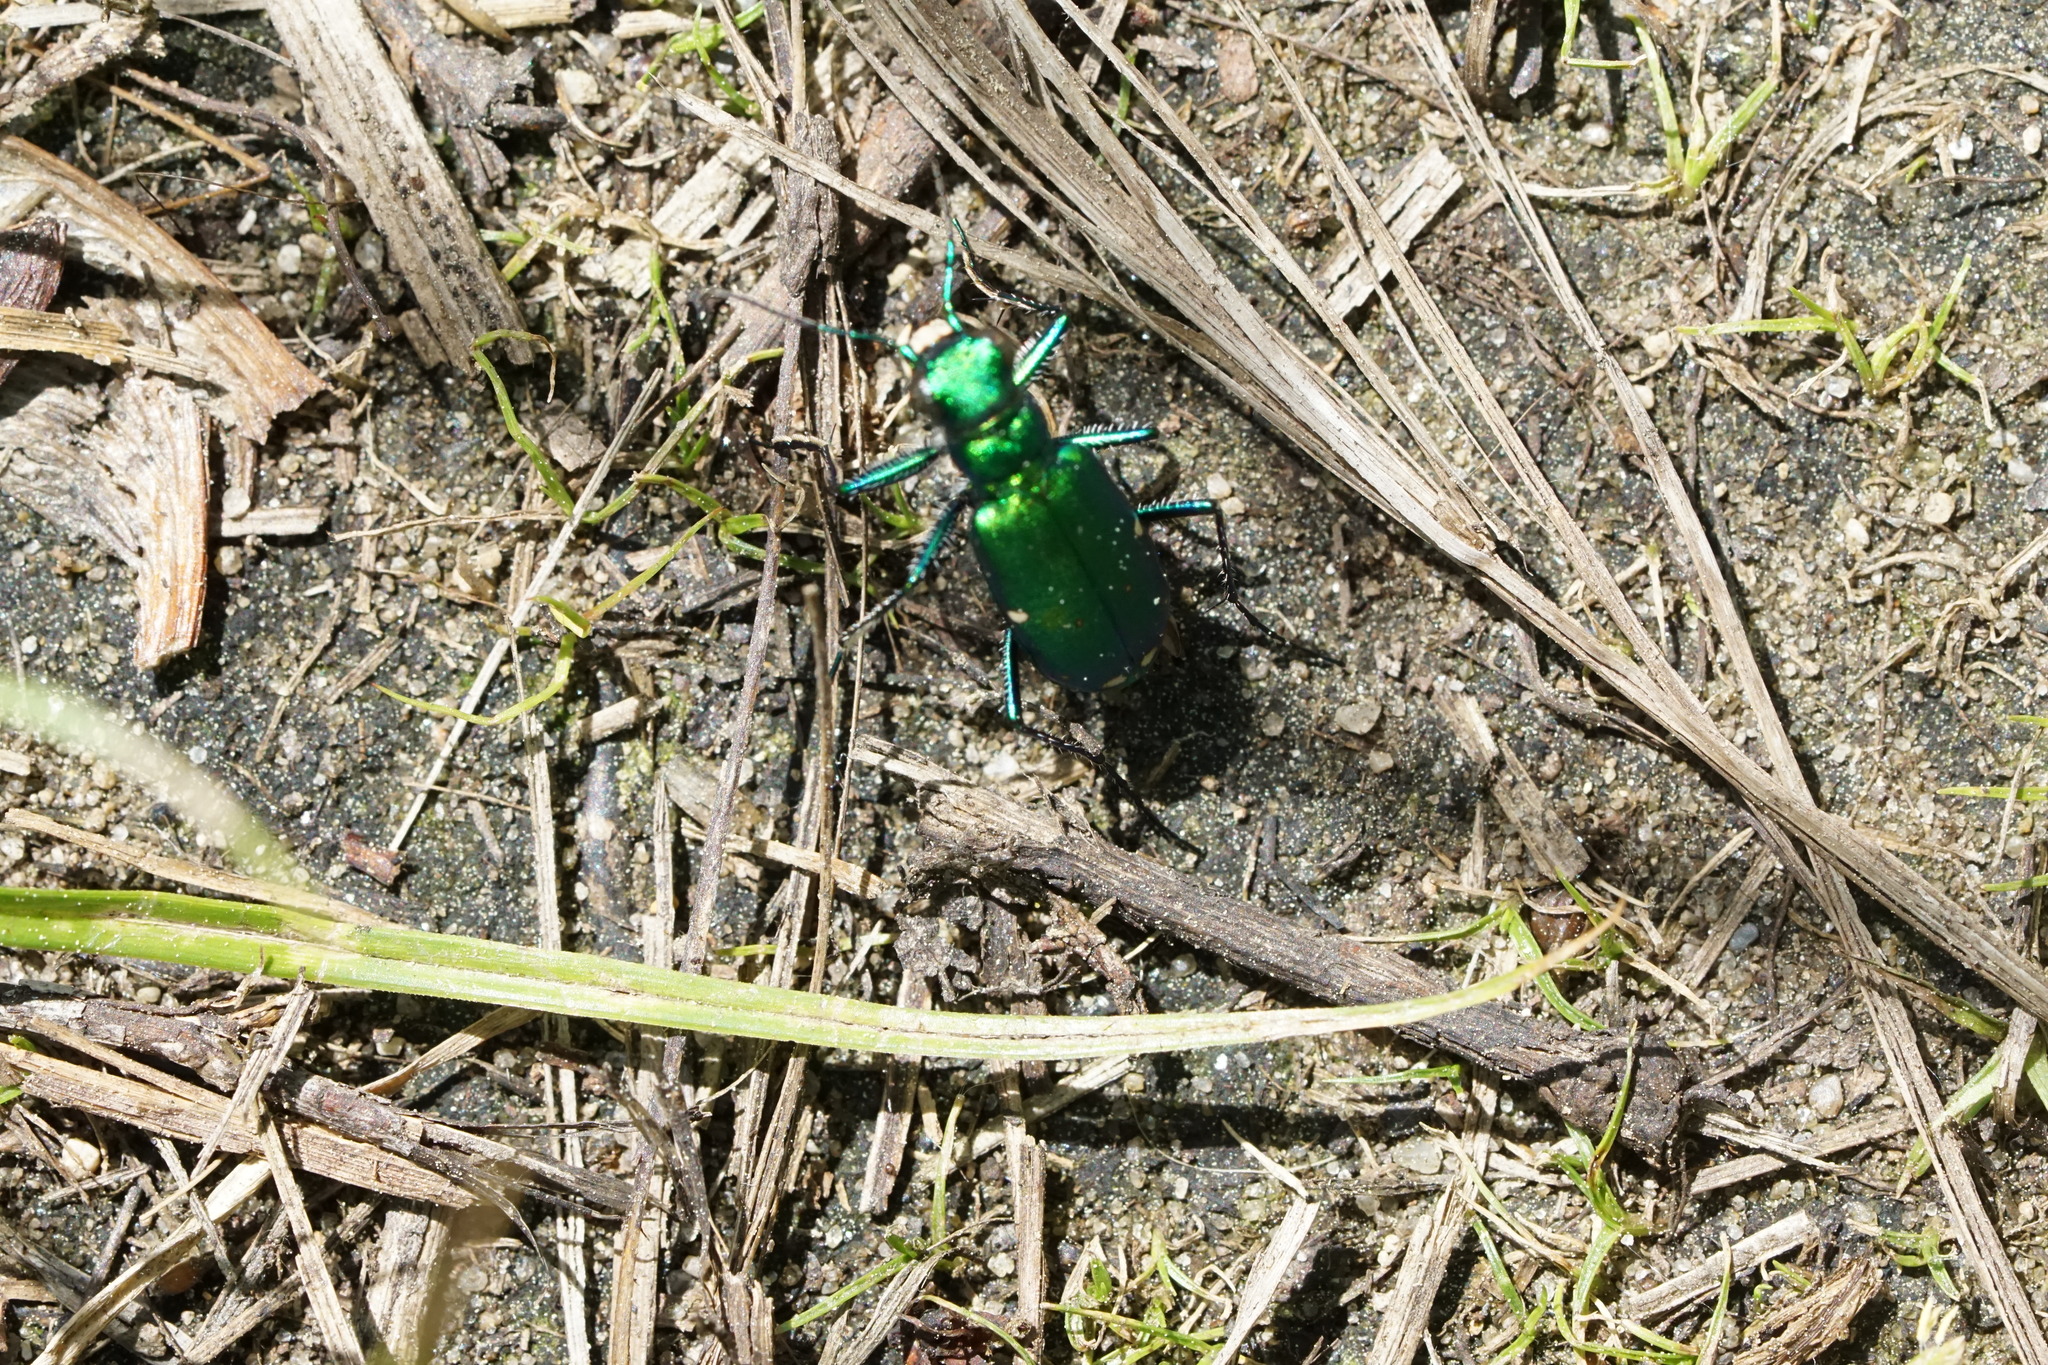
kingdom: Animalia
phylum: Arthropoda
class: Insecta
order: Coleoptera
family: Carabidae
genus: Cicindela
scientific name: Cicindela sexguttata
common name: Six-spotted tiger beetle
